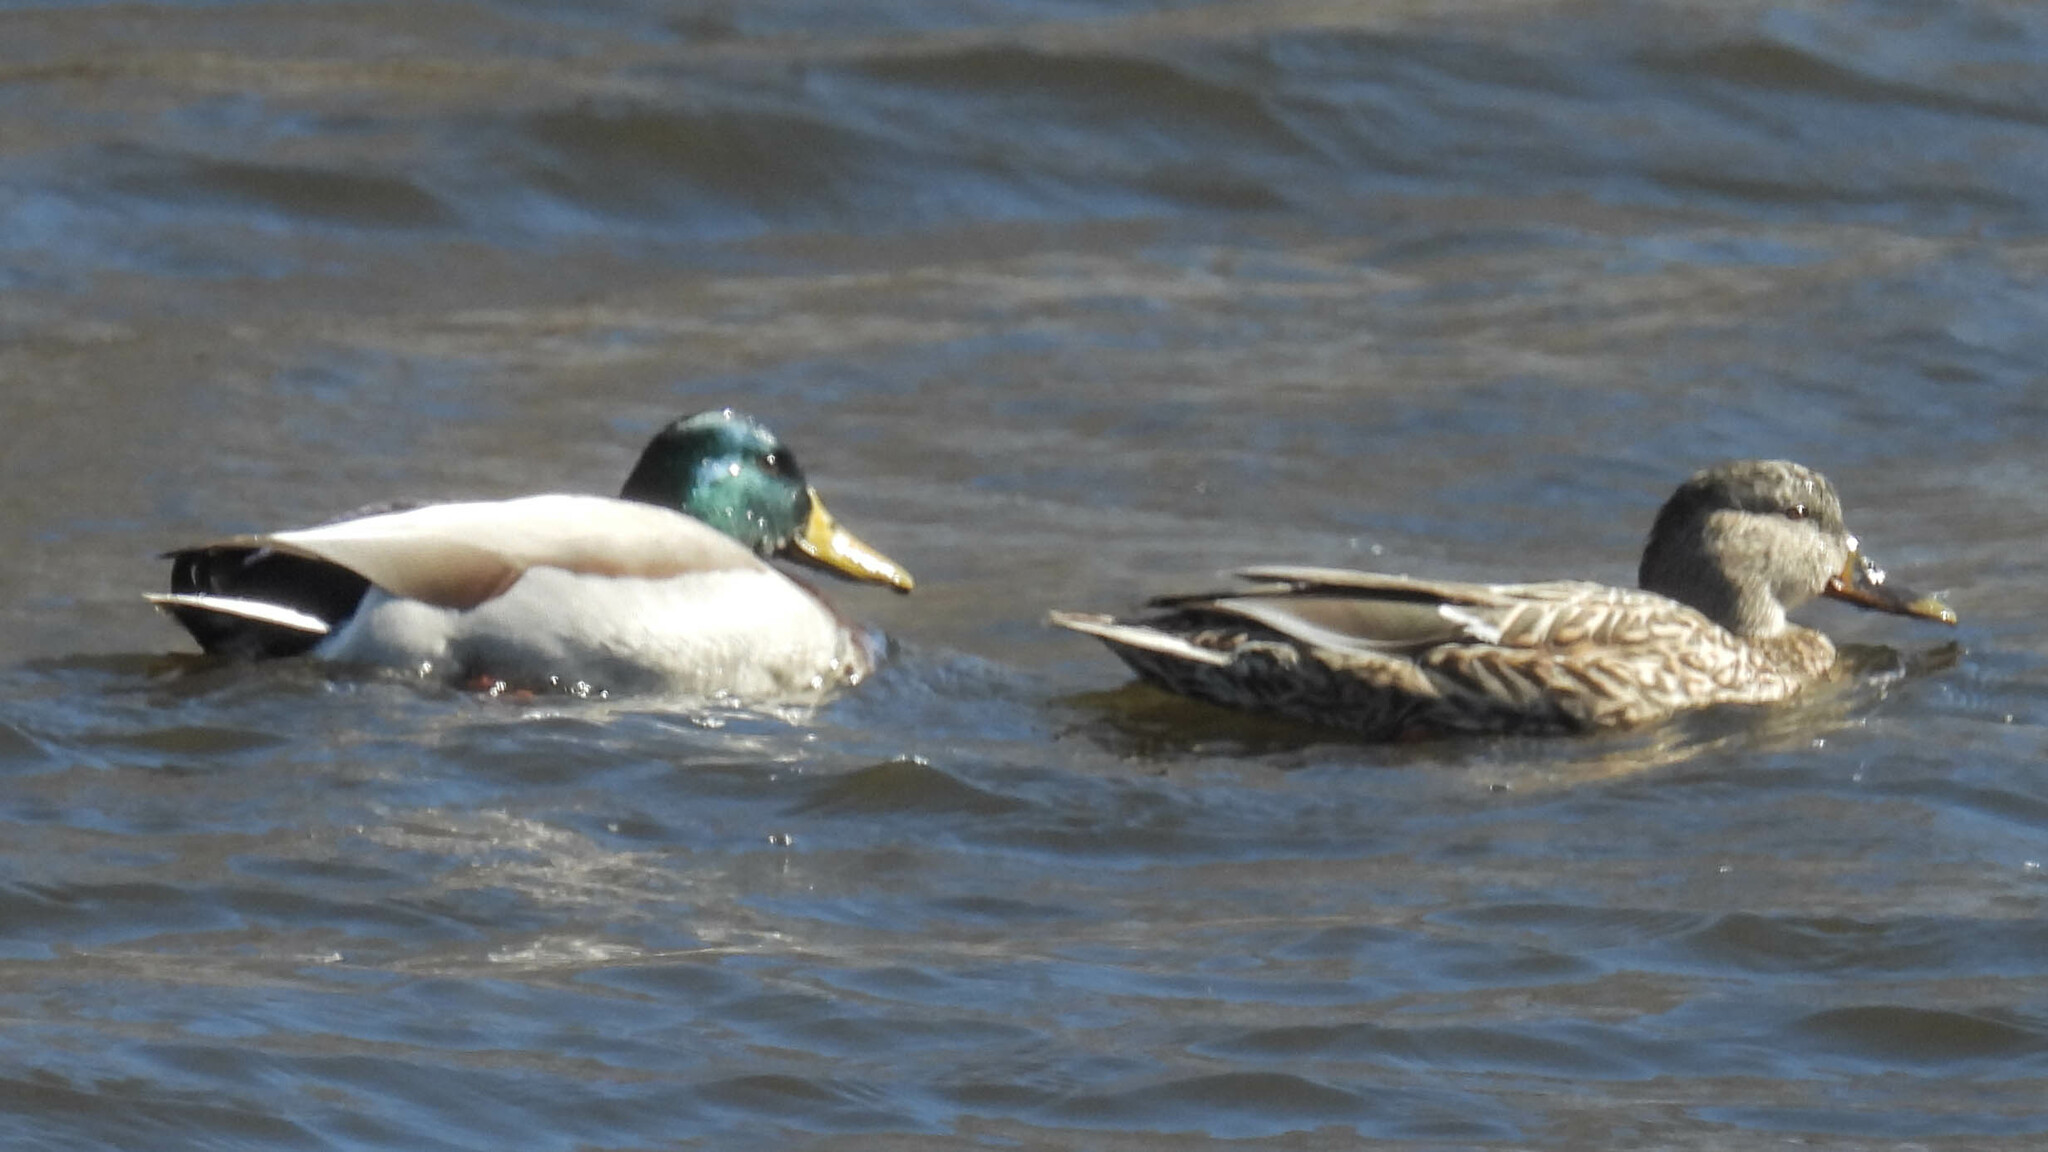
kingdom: Animalia
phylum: Chordata
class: Aves
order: Anseriformes
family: Anatidae
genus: Anas
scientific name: Anas platyrhynchos
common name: Mallard
